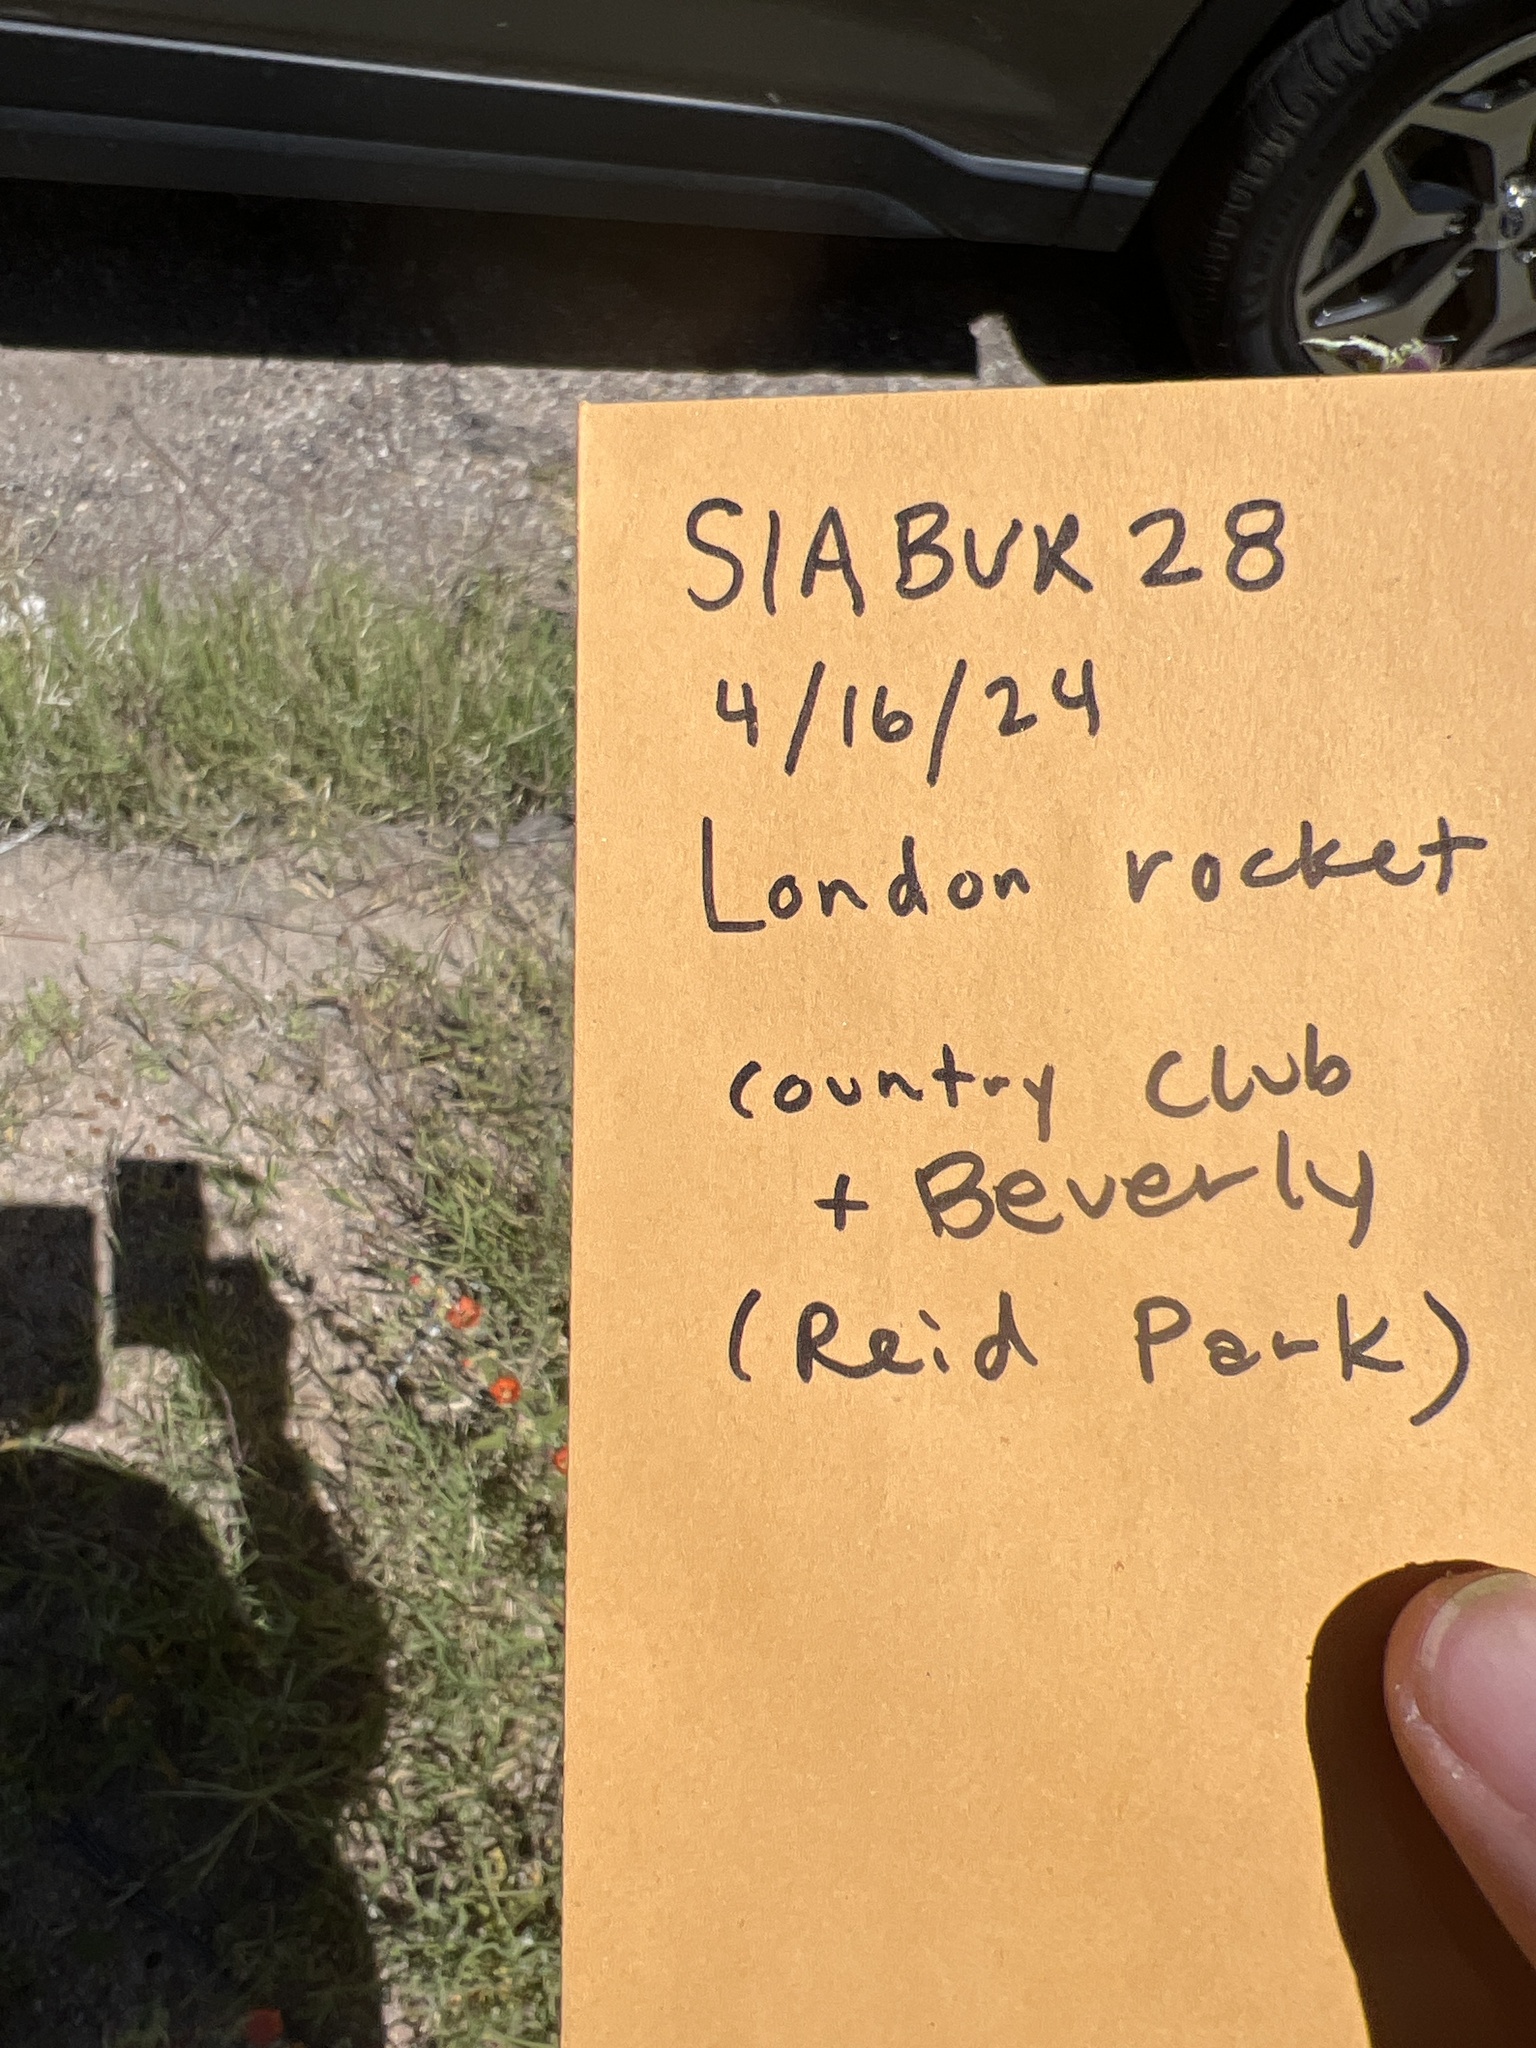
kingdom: Plantae
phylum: Tracheophyta
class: Magnoliopsida
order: Brassicales
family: Brassicaceae
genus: Sisymbrium
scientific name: Sisymbrium irio
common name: London rocket
